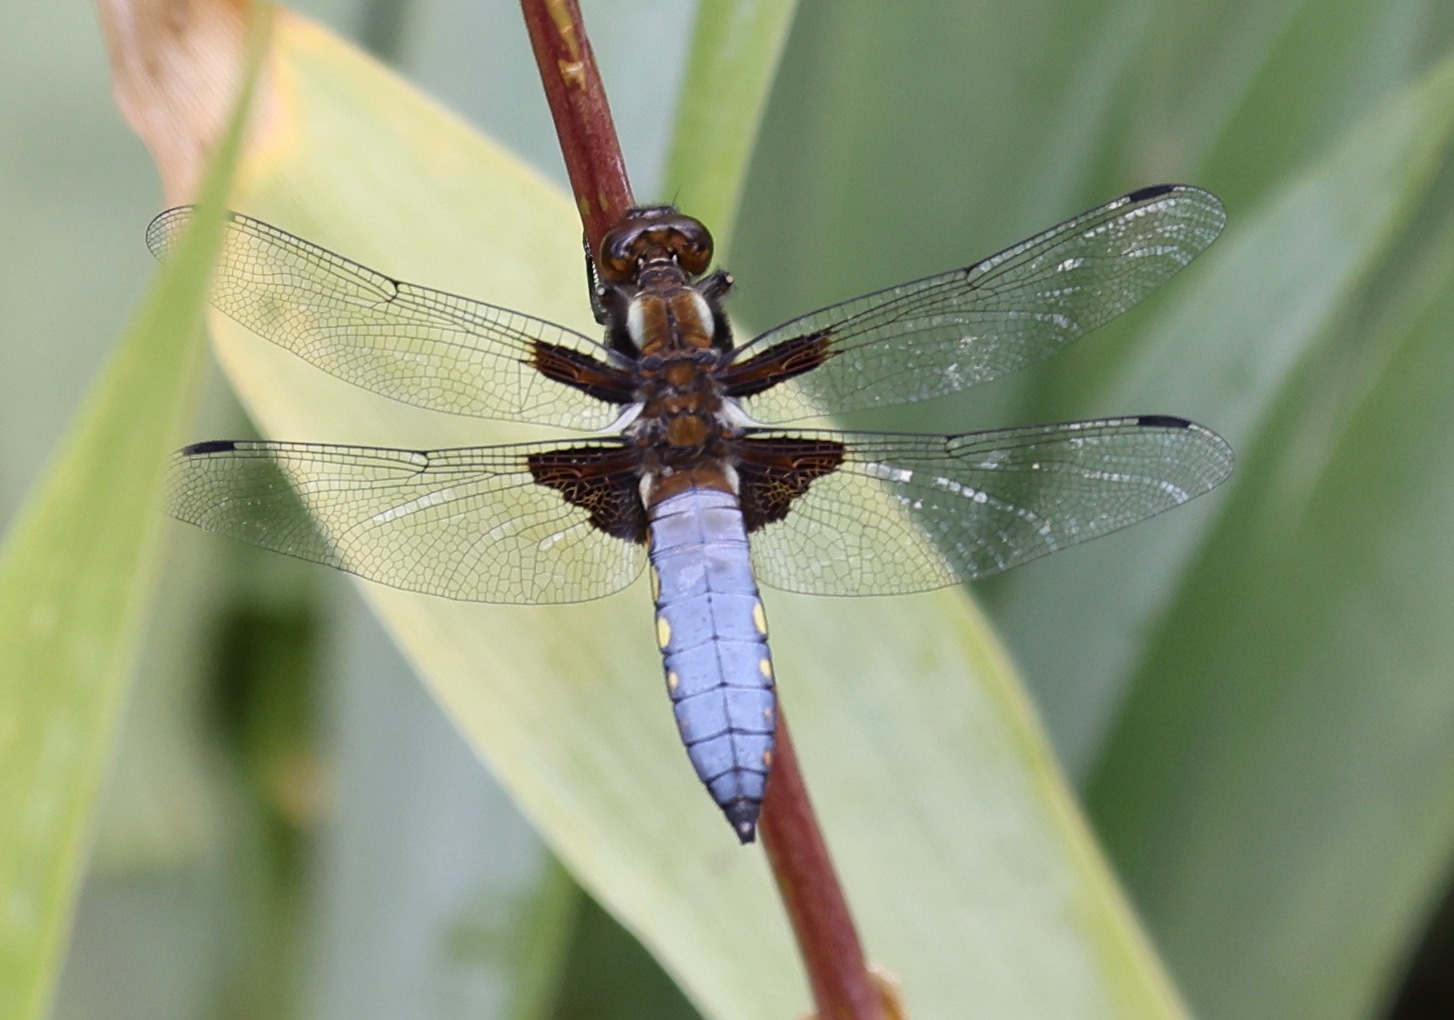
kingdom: Animalia
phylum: Arthropoda
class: Insecta
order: Odonata
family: Libellulidae
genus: Libellula
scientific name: Libellula depressa
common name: Broad-bodied chaser
